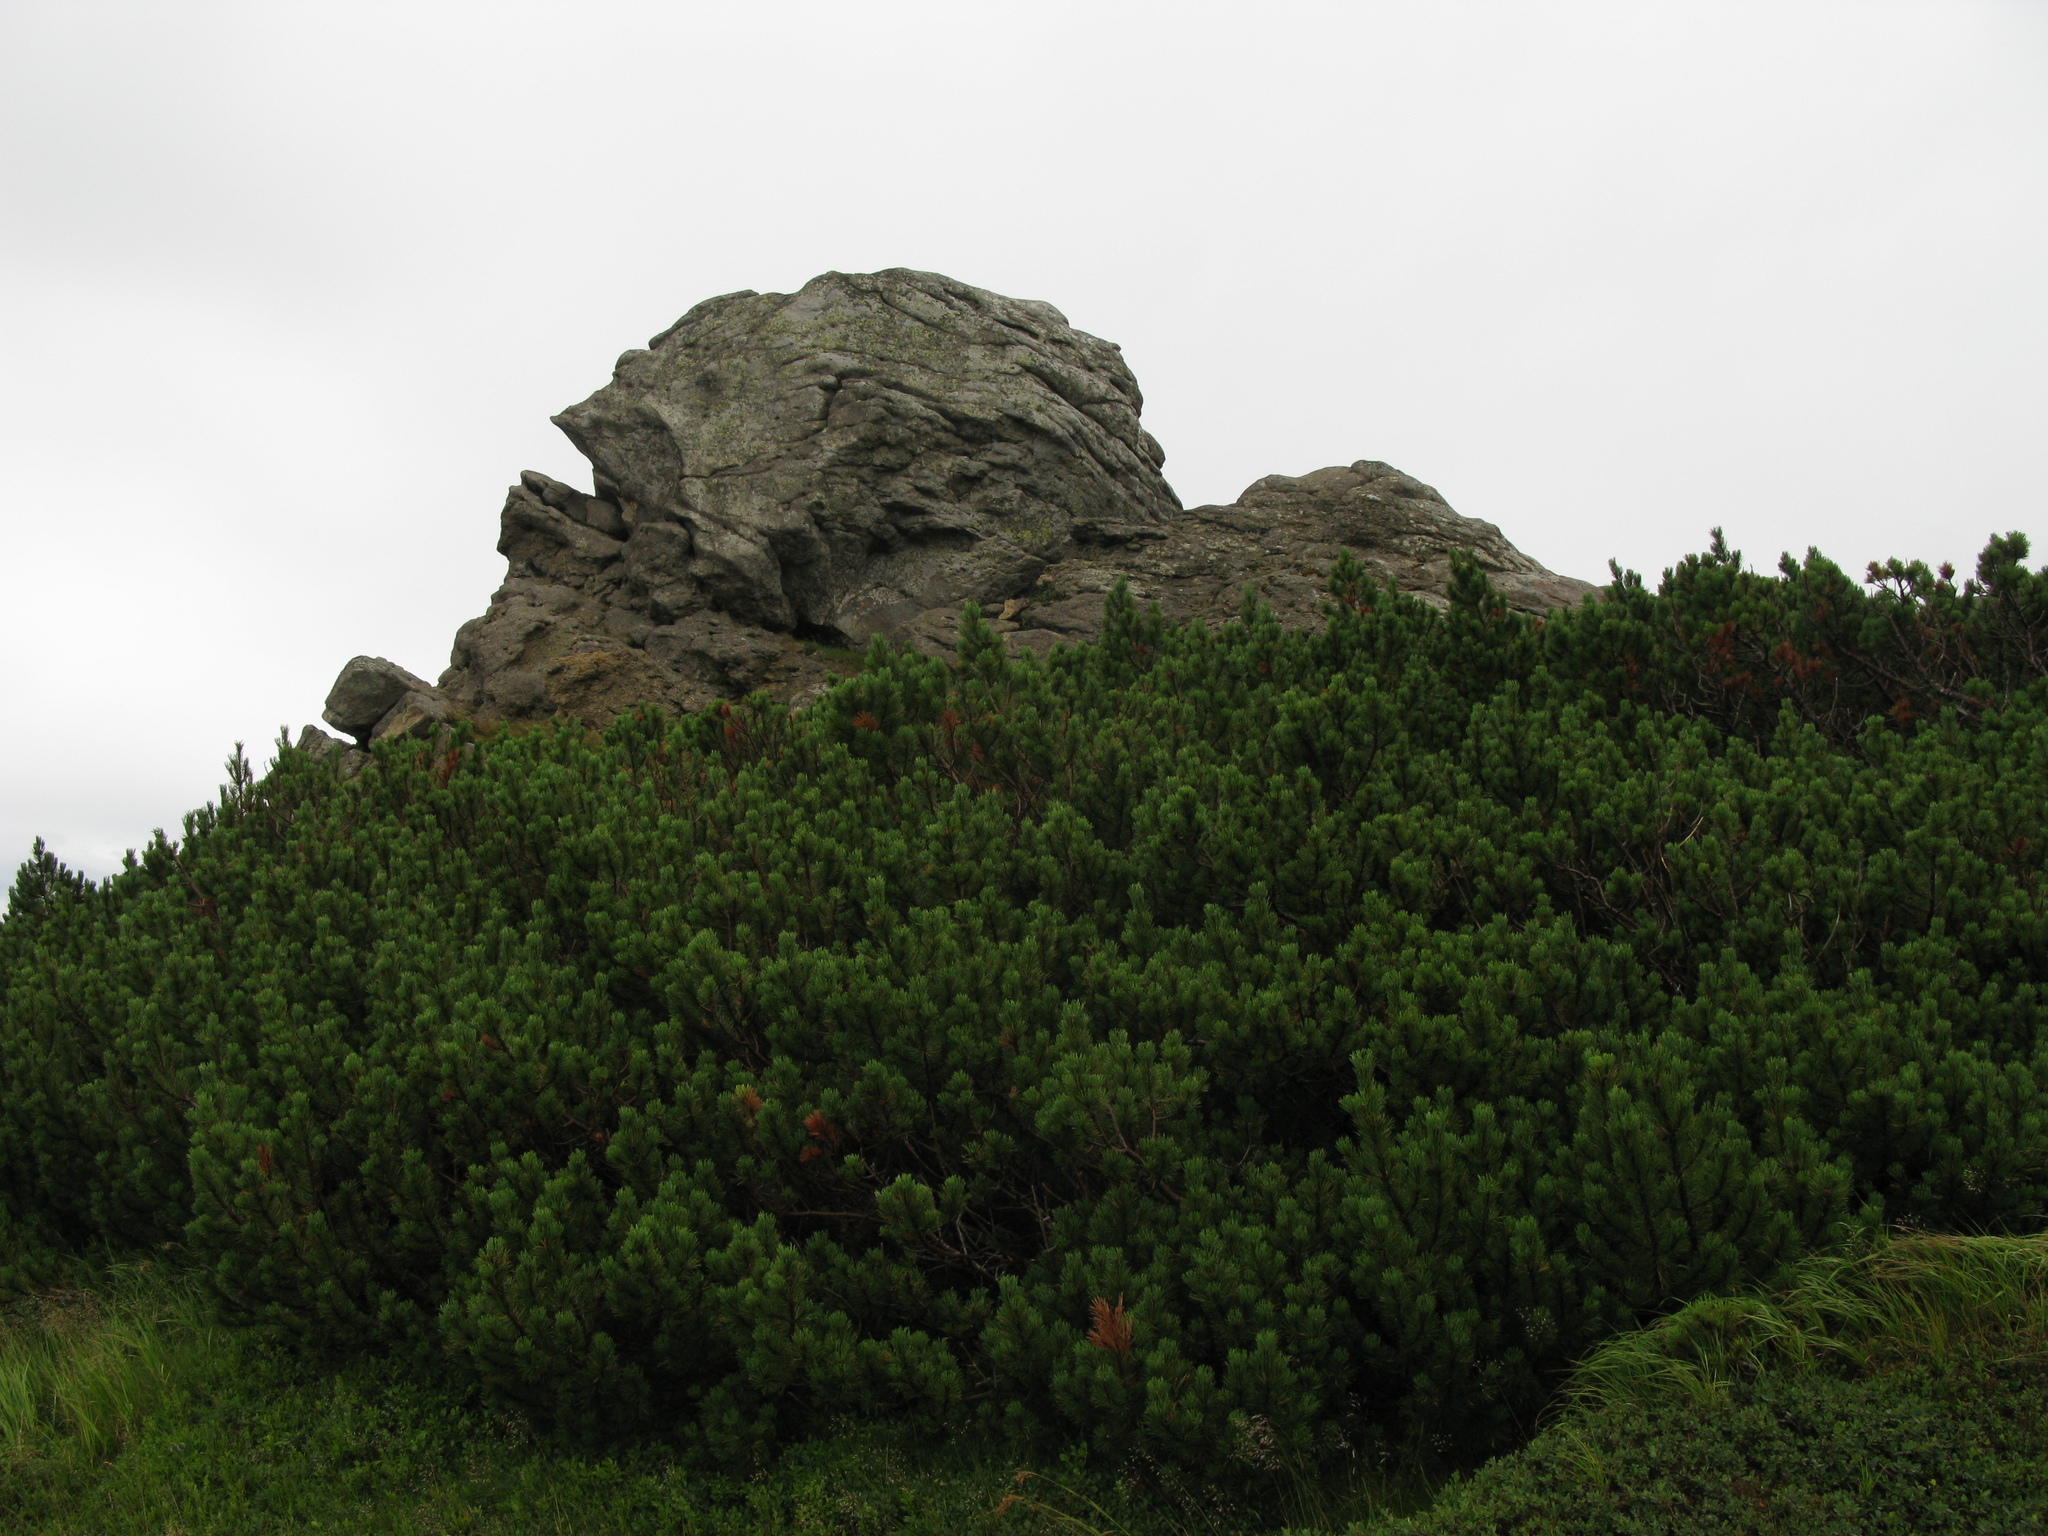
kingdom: Plantae
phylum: Tracheophyta
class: Pinopsida
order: Pinales
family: Pinaceae
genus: Pinus
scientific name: Pinus mugo
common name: Mugo pine
